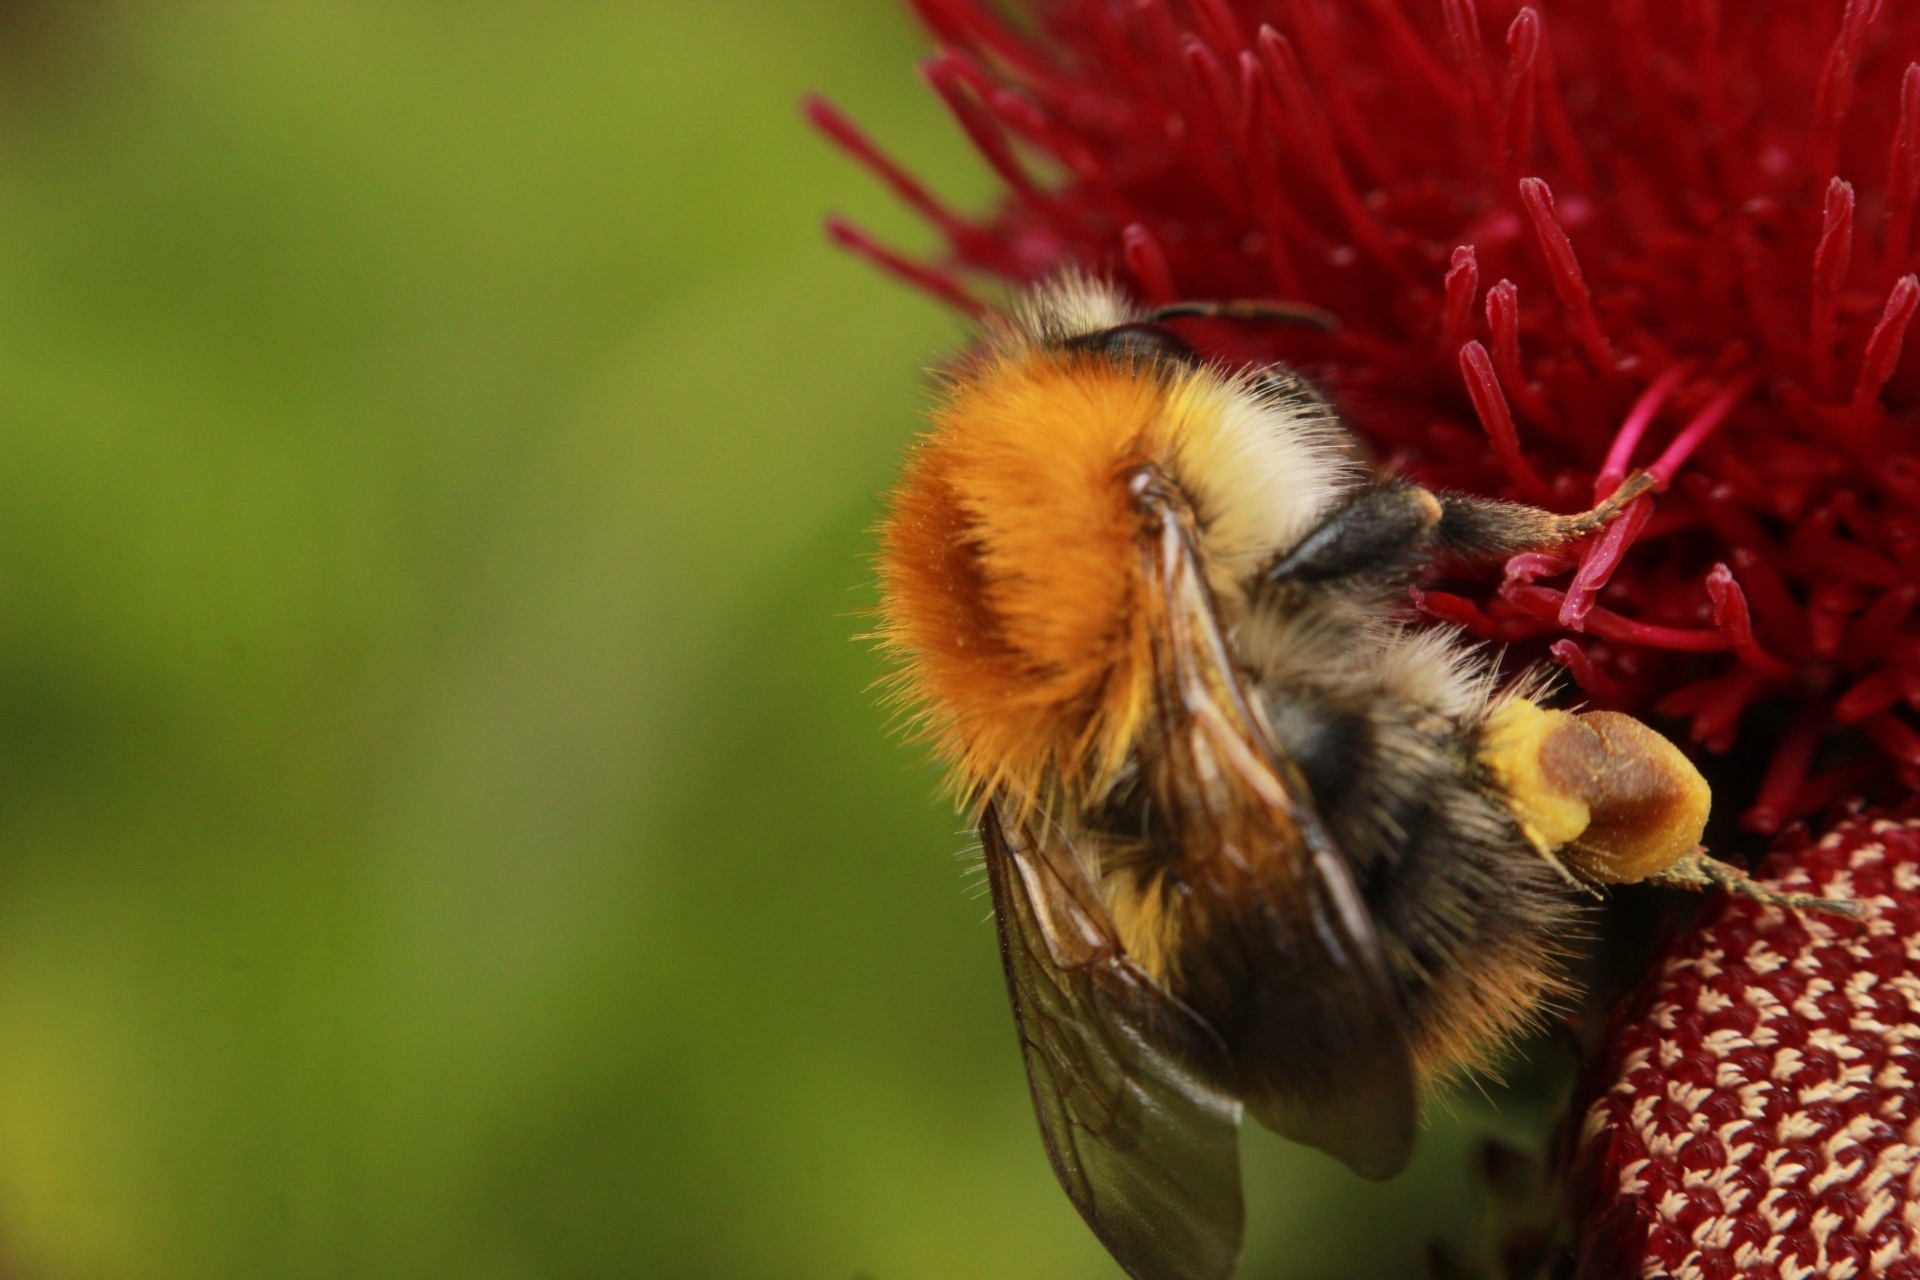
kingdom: Animalia
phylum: Arthropoda
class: Insecta
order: Hymenoptera
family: Apidae
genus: Bombus
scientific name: Bombus pascuorum
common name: Common carder bee
